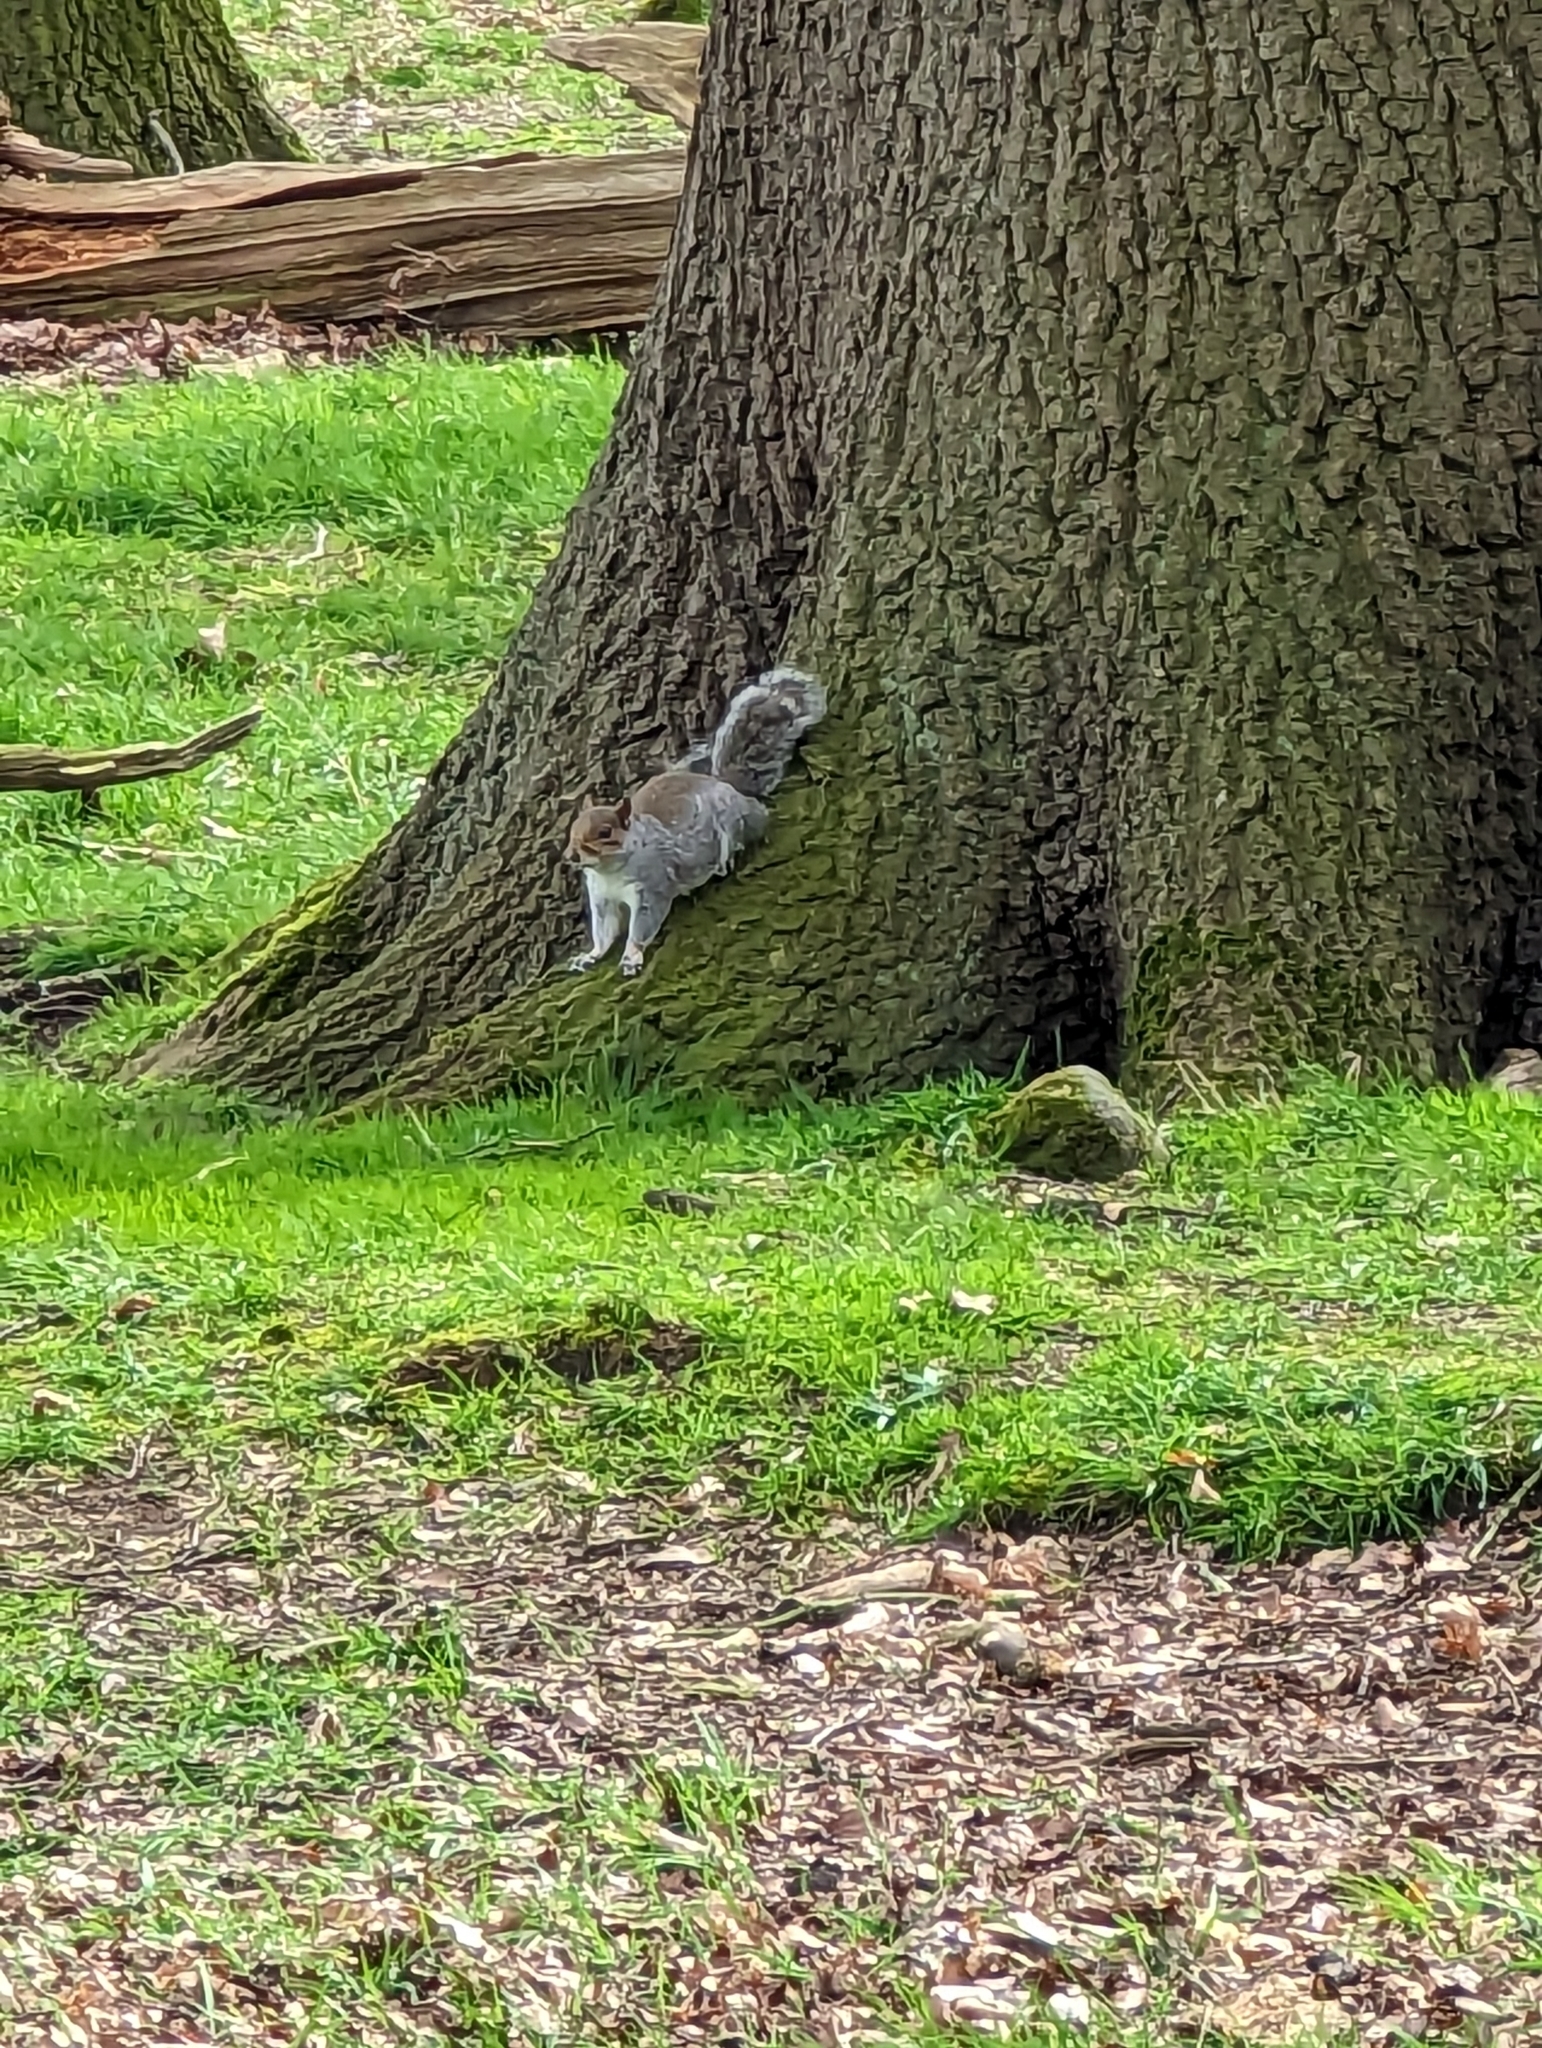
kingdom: Animalia
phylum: Chordata
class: Mammalia
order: Rodentia
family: Sciuridae
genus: Sciurus
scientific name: Sciurus carolinensis
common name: Eastern gray squirrel
